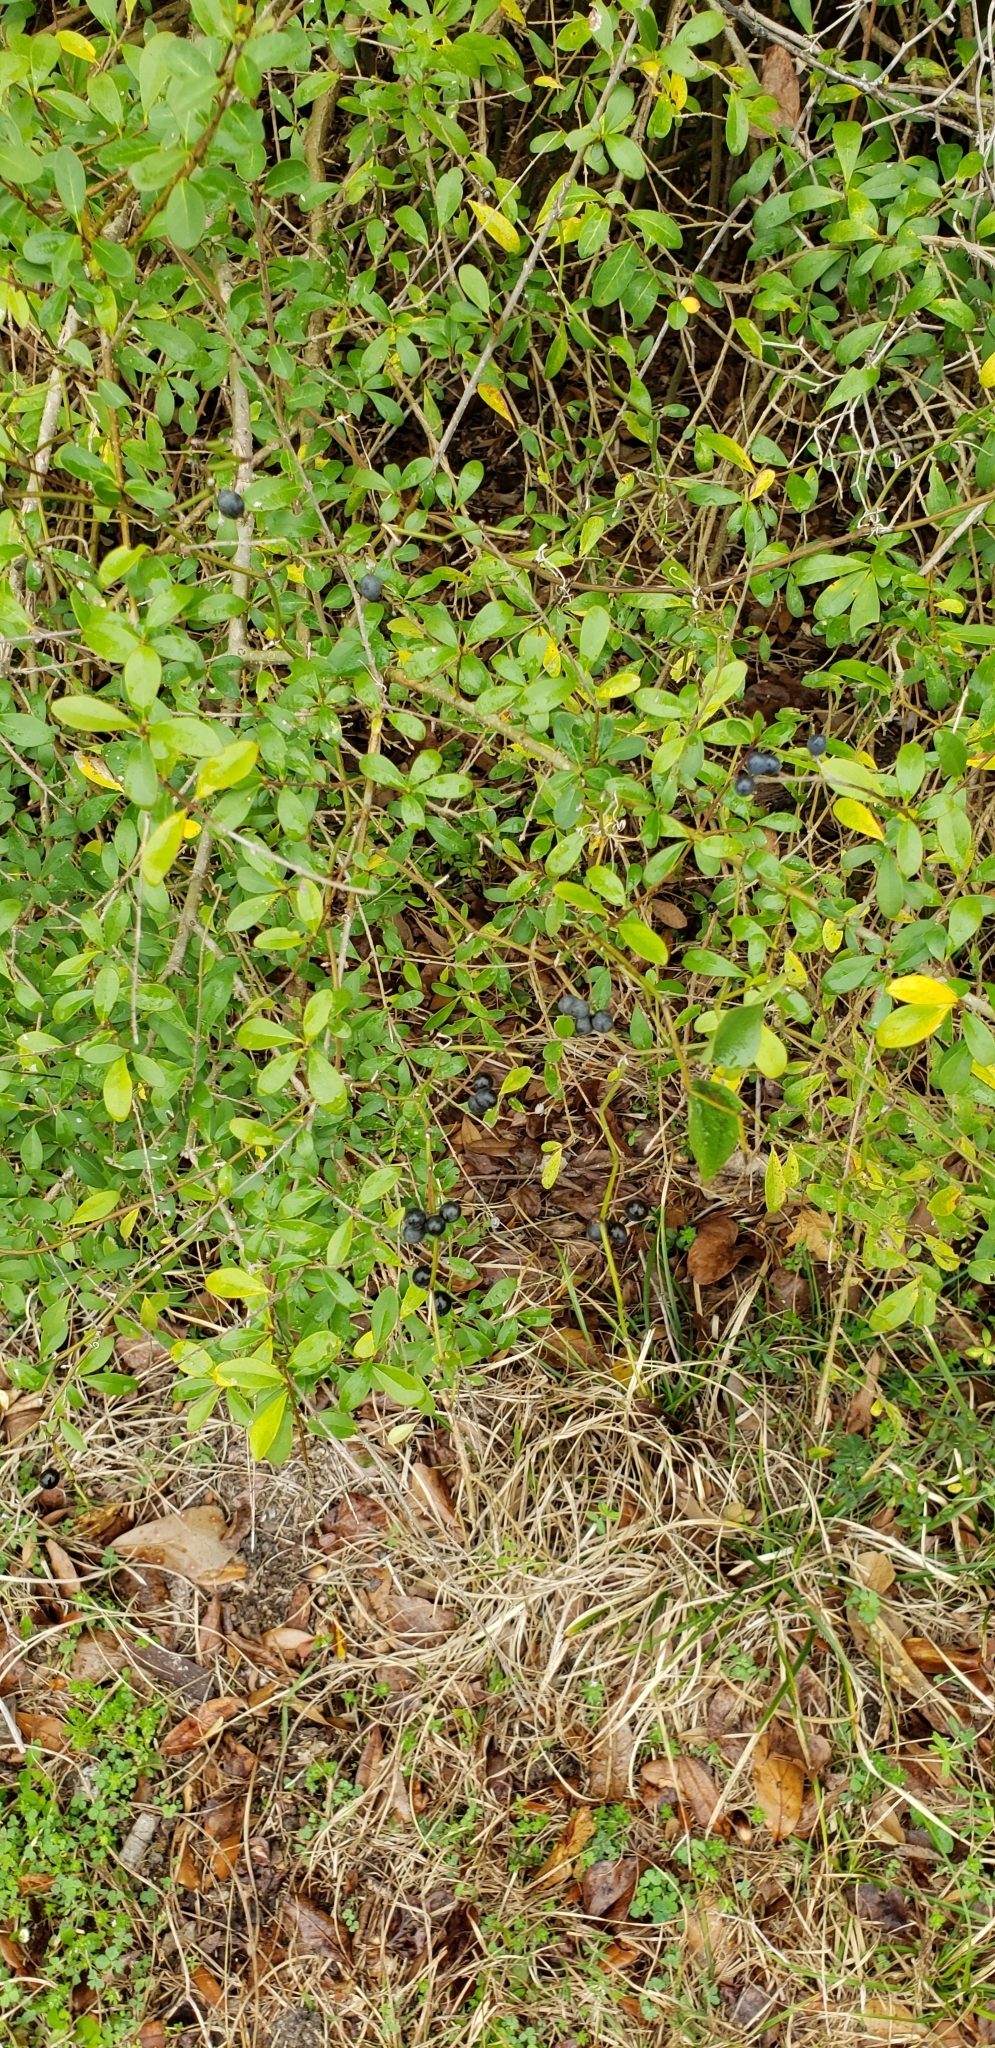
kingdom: Plantae
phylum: Tracheophyta
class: Magnoliopsida
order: Lamiales
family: Oleaceae
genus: Ligustrum
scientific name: Ligustrum quihoui
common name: Waxyleaf privet
